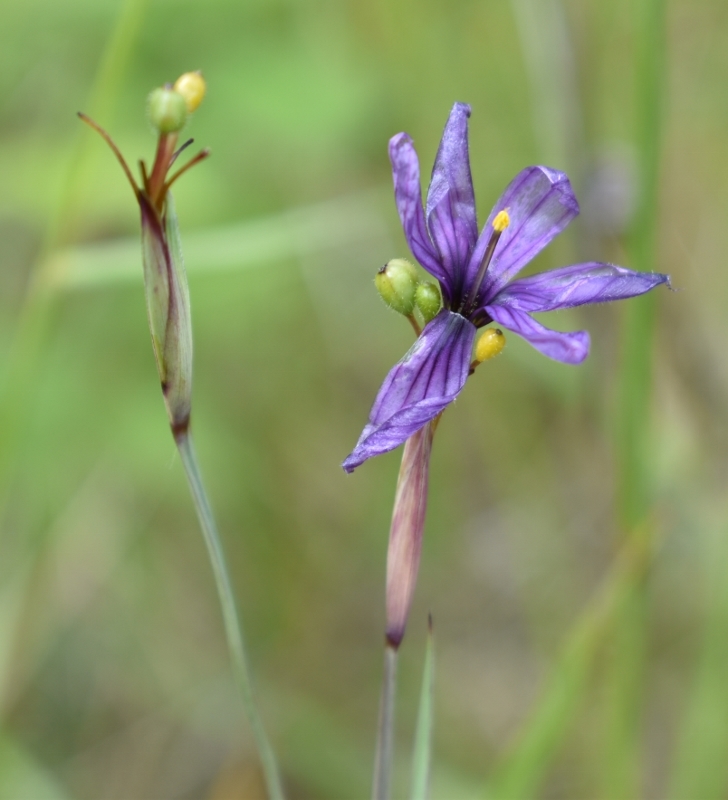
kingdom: Plantae
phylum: Tracheophyta
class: Liliopsida
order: Asparagales
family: Iridaceae
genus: Sisyrinchium
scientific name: Sisyrinchium hitchcockii
